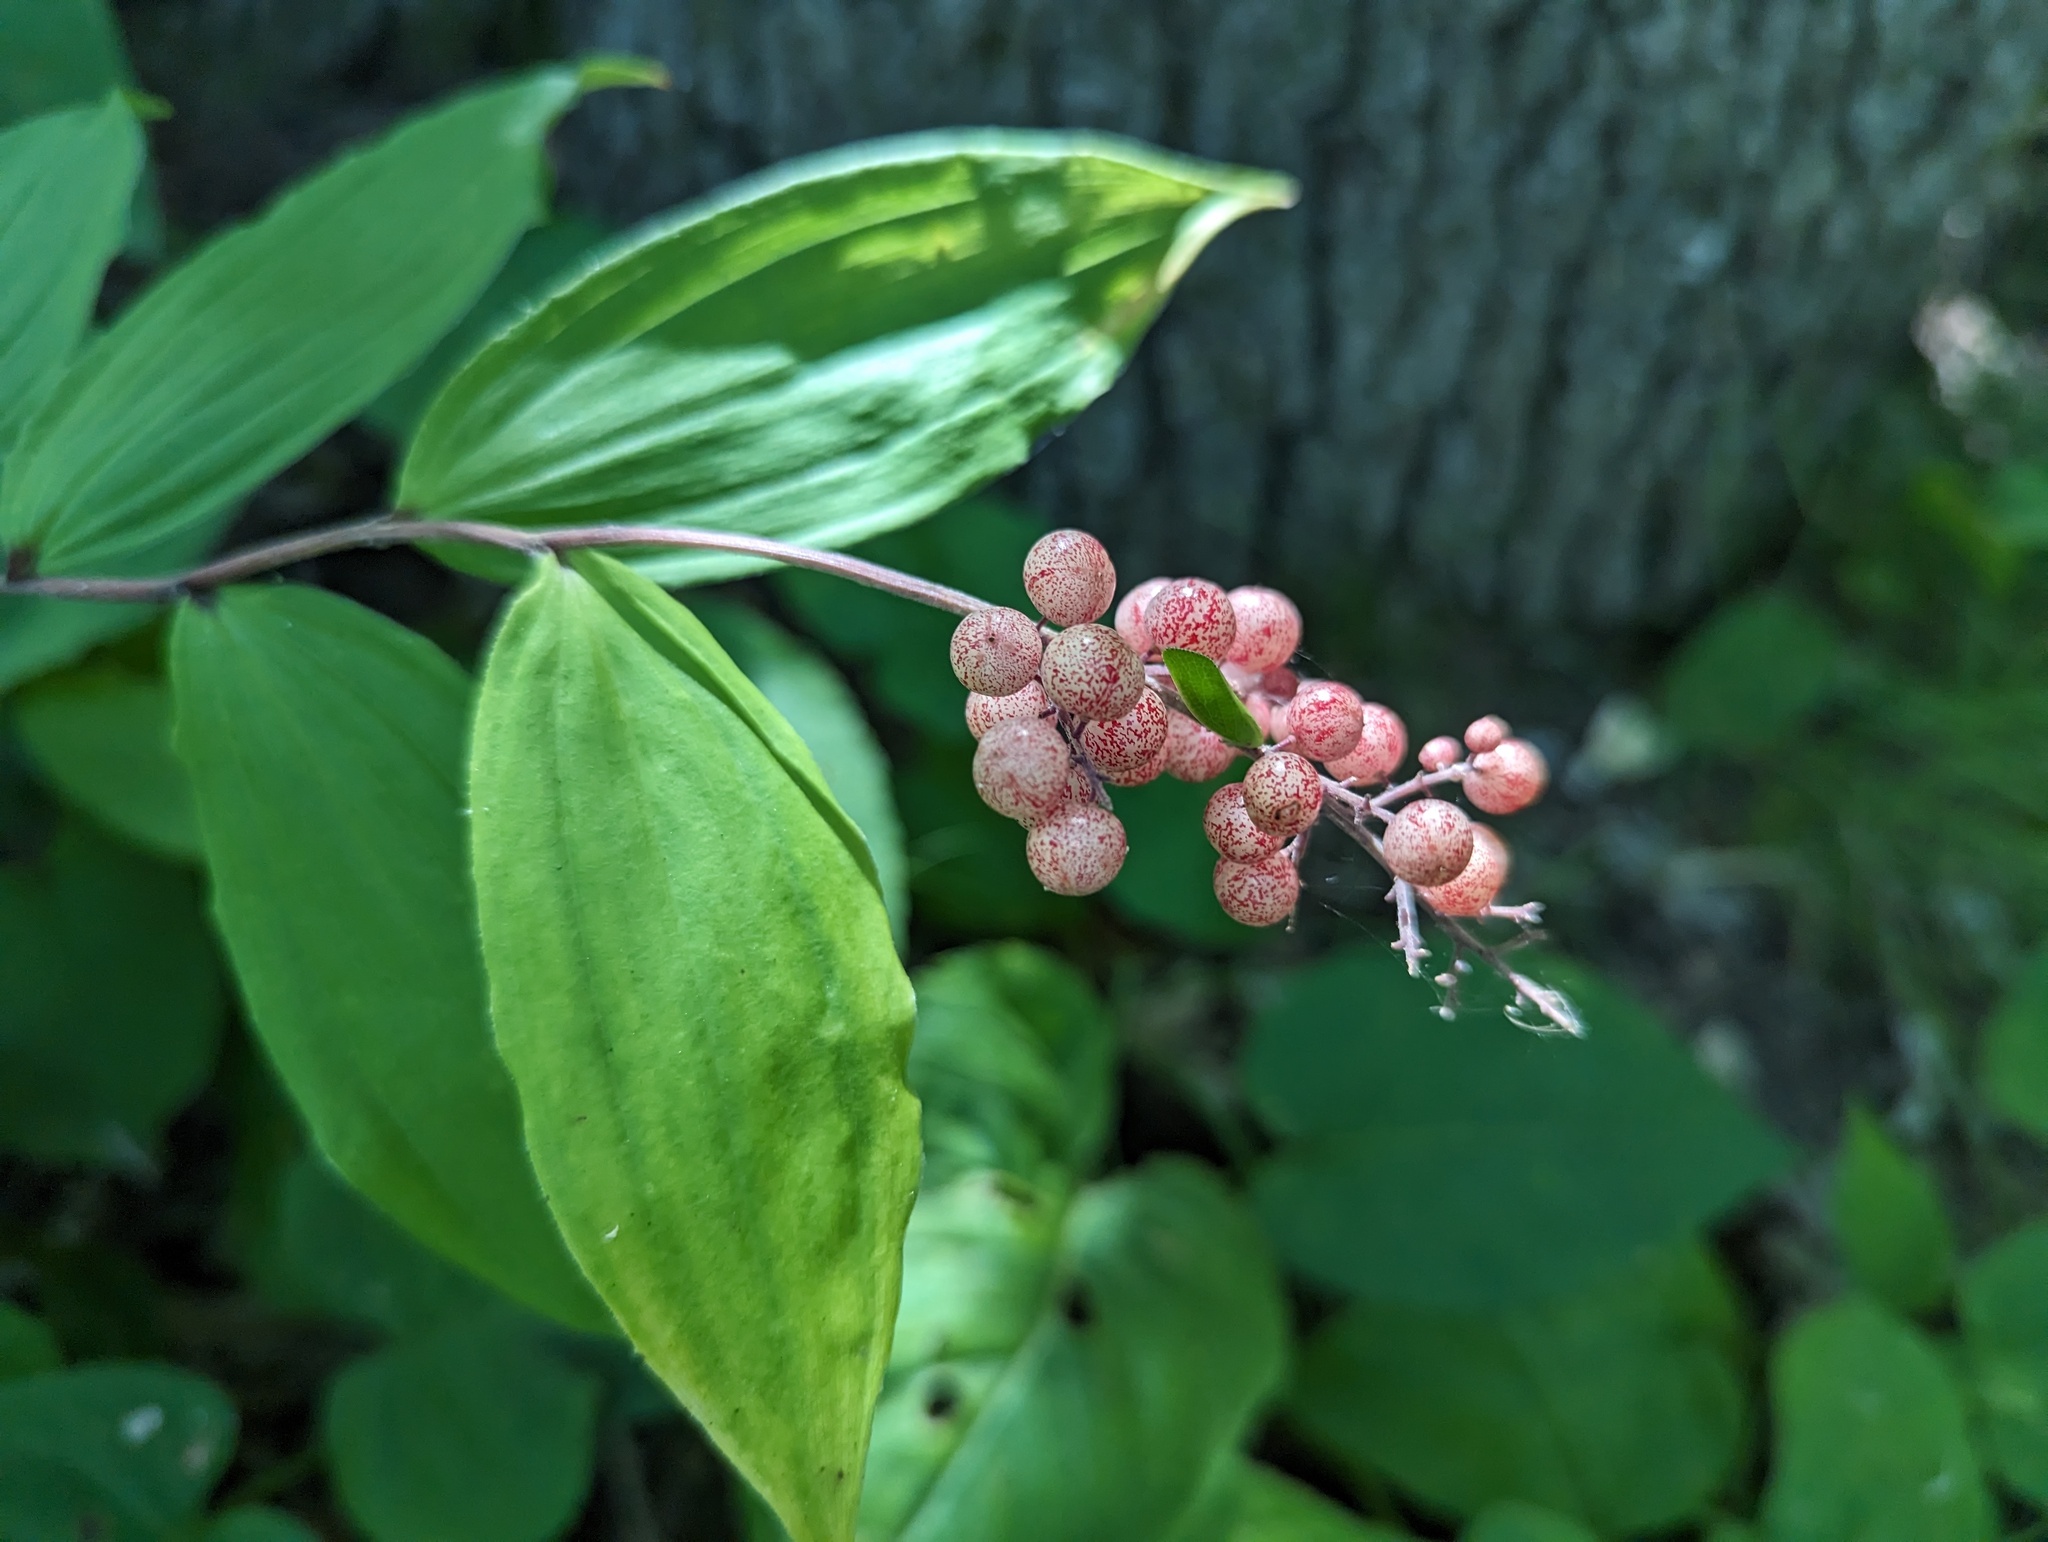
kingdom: Plantae
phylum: Tracheophyta
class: Liliopsida
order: Asparagales
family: Asparagaceae
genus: Maianthemum
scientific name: Maianthemum racemosum
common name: False spikenard
